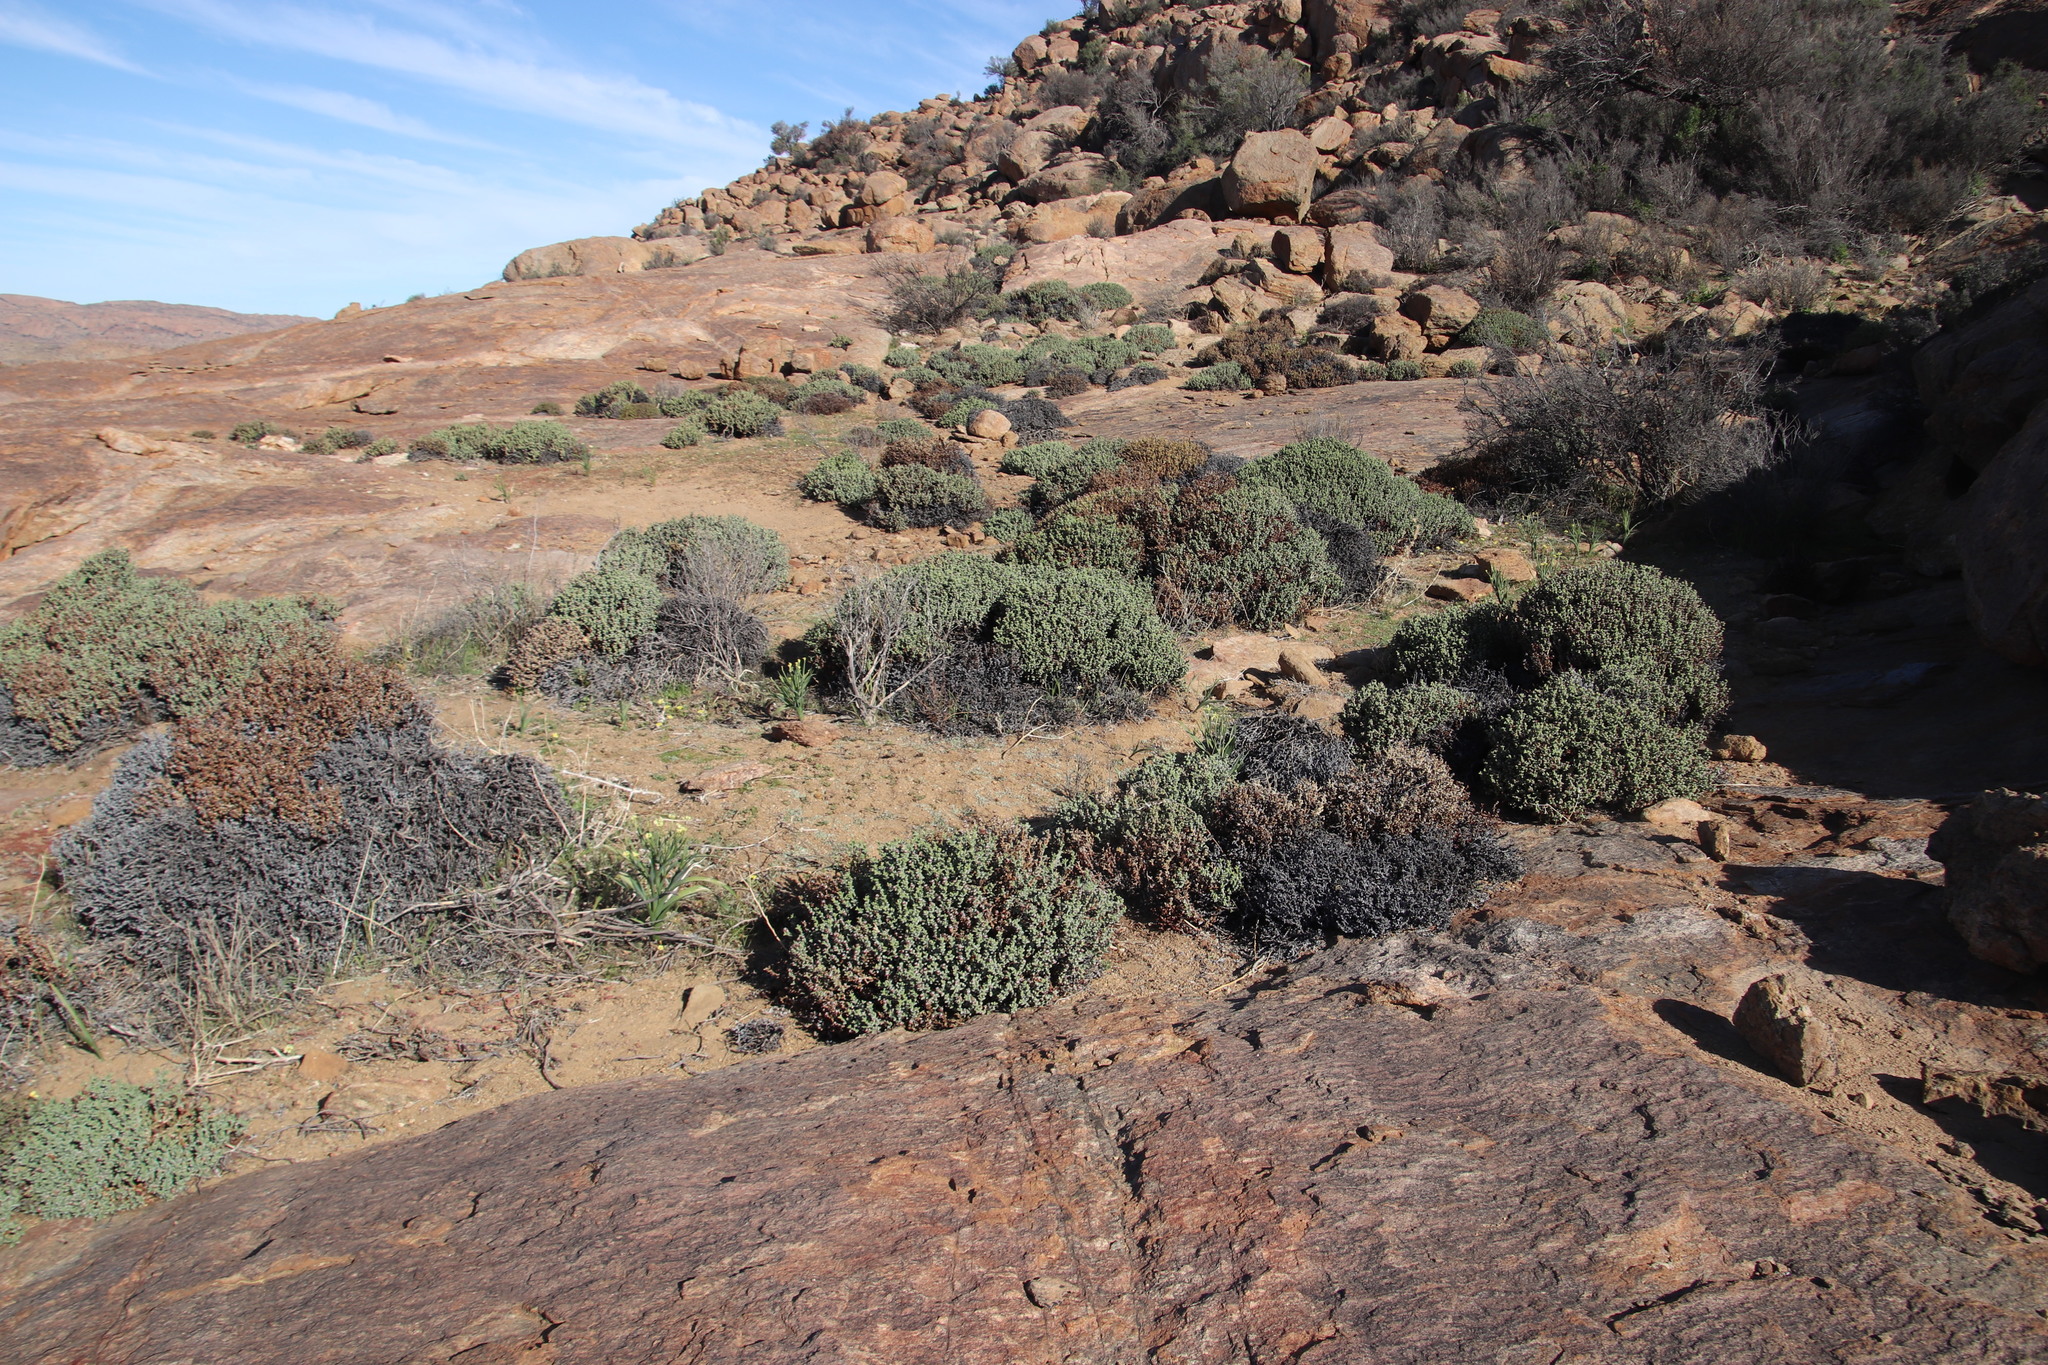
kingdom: Plantae
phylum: Tracheophyta
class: Liliopsida
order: Asparagales
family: Iridaceae
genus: Moraea
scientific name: Moraea schlechteri
